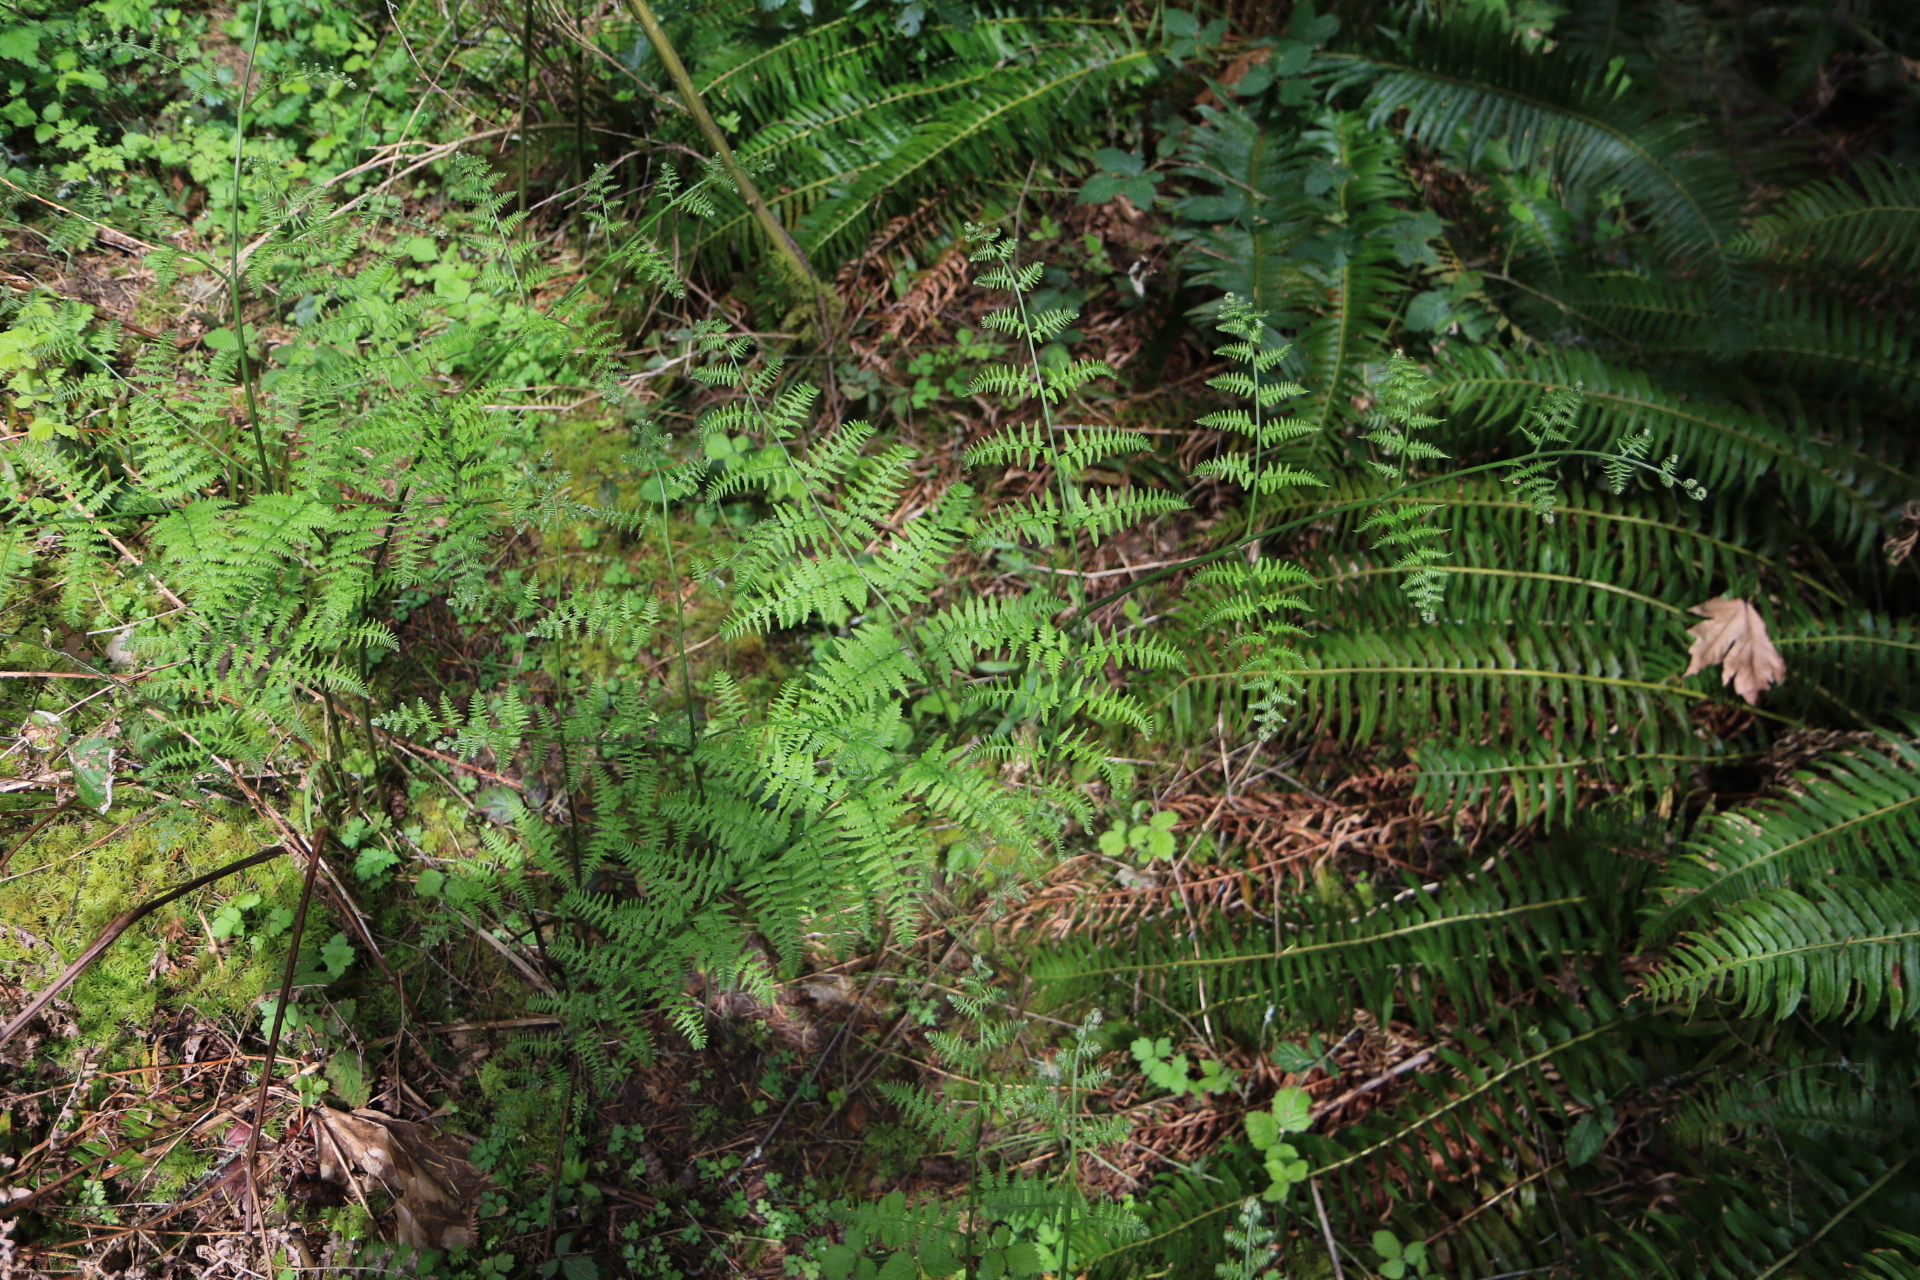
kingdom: Plantae
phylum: Tracheophyta
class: Polypodiopsida
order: Polypodiales
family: Dennstaedtiaceae
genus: Pteridium
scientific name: Pteridium aquilinum
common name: Bracken
